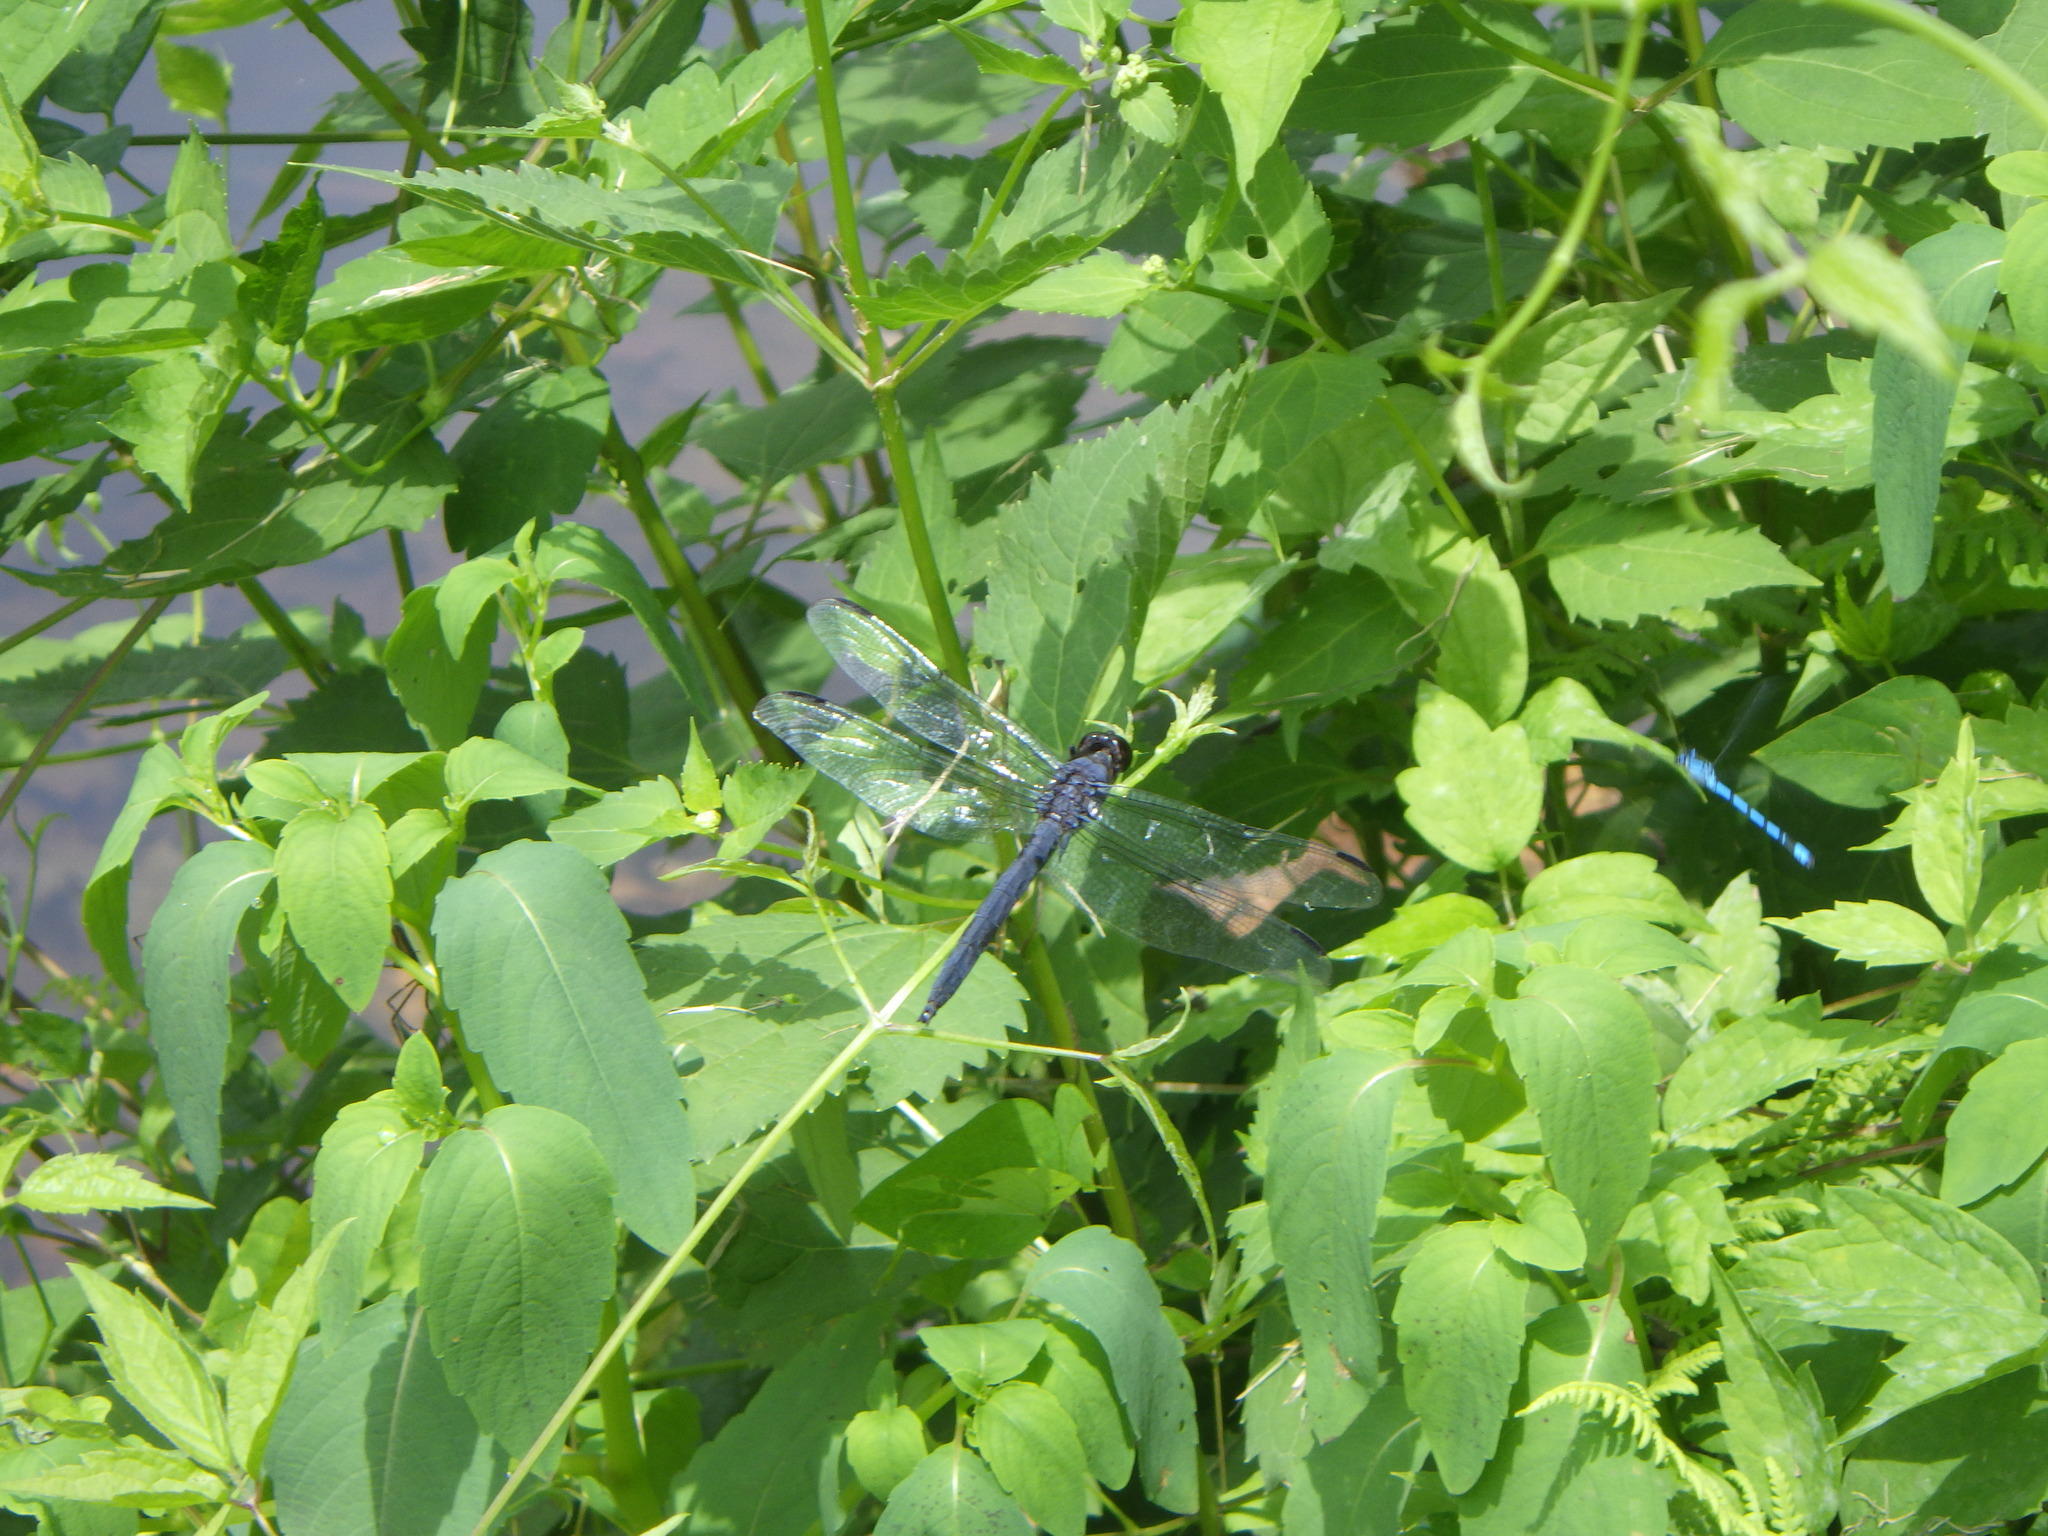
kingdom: Animalia
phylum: Arthropoda
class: Insecta
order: Odonata
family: Libellulidae
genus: Libellula
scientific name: Libellula incesta
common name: Slaty skimmer
